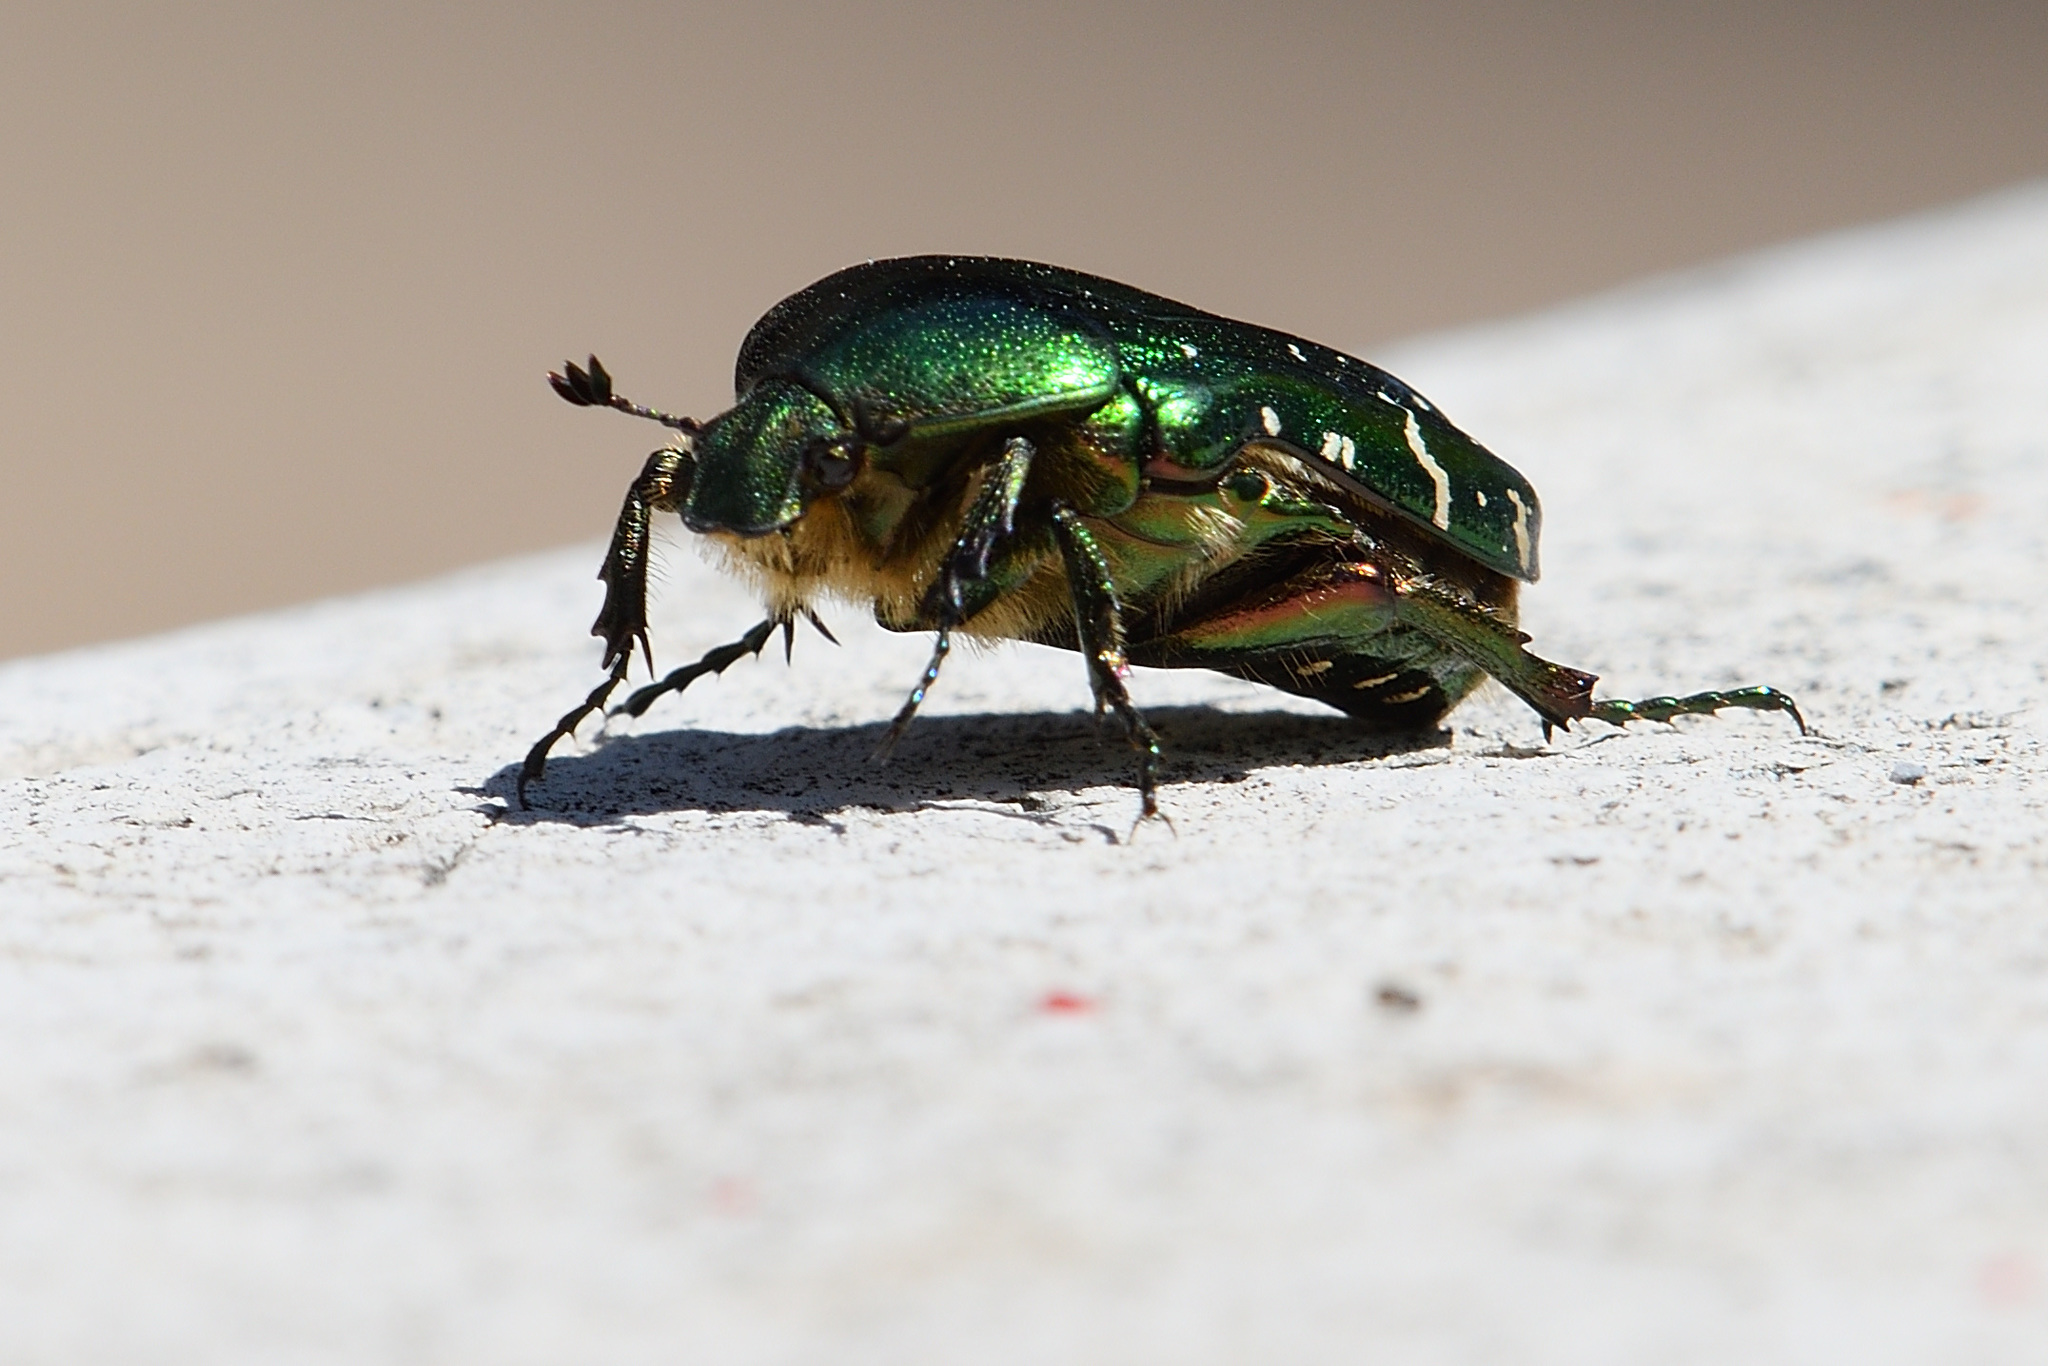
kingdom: Animalia
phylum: Arthropoda
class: Insecta
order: Coleoptera
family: Scarabaeidae
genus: Cetonia
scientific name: Cetonia aurata
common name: Rose chafer
